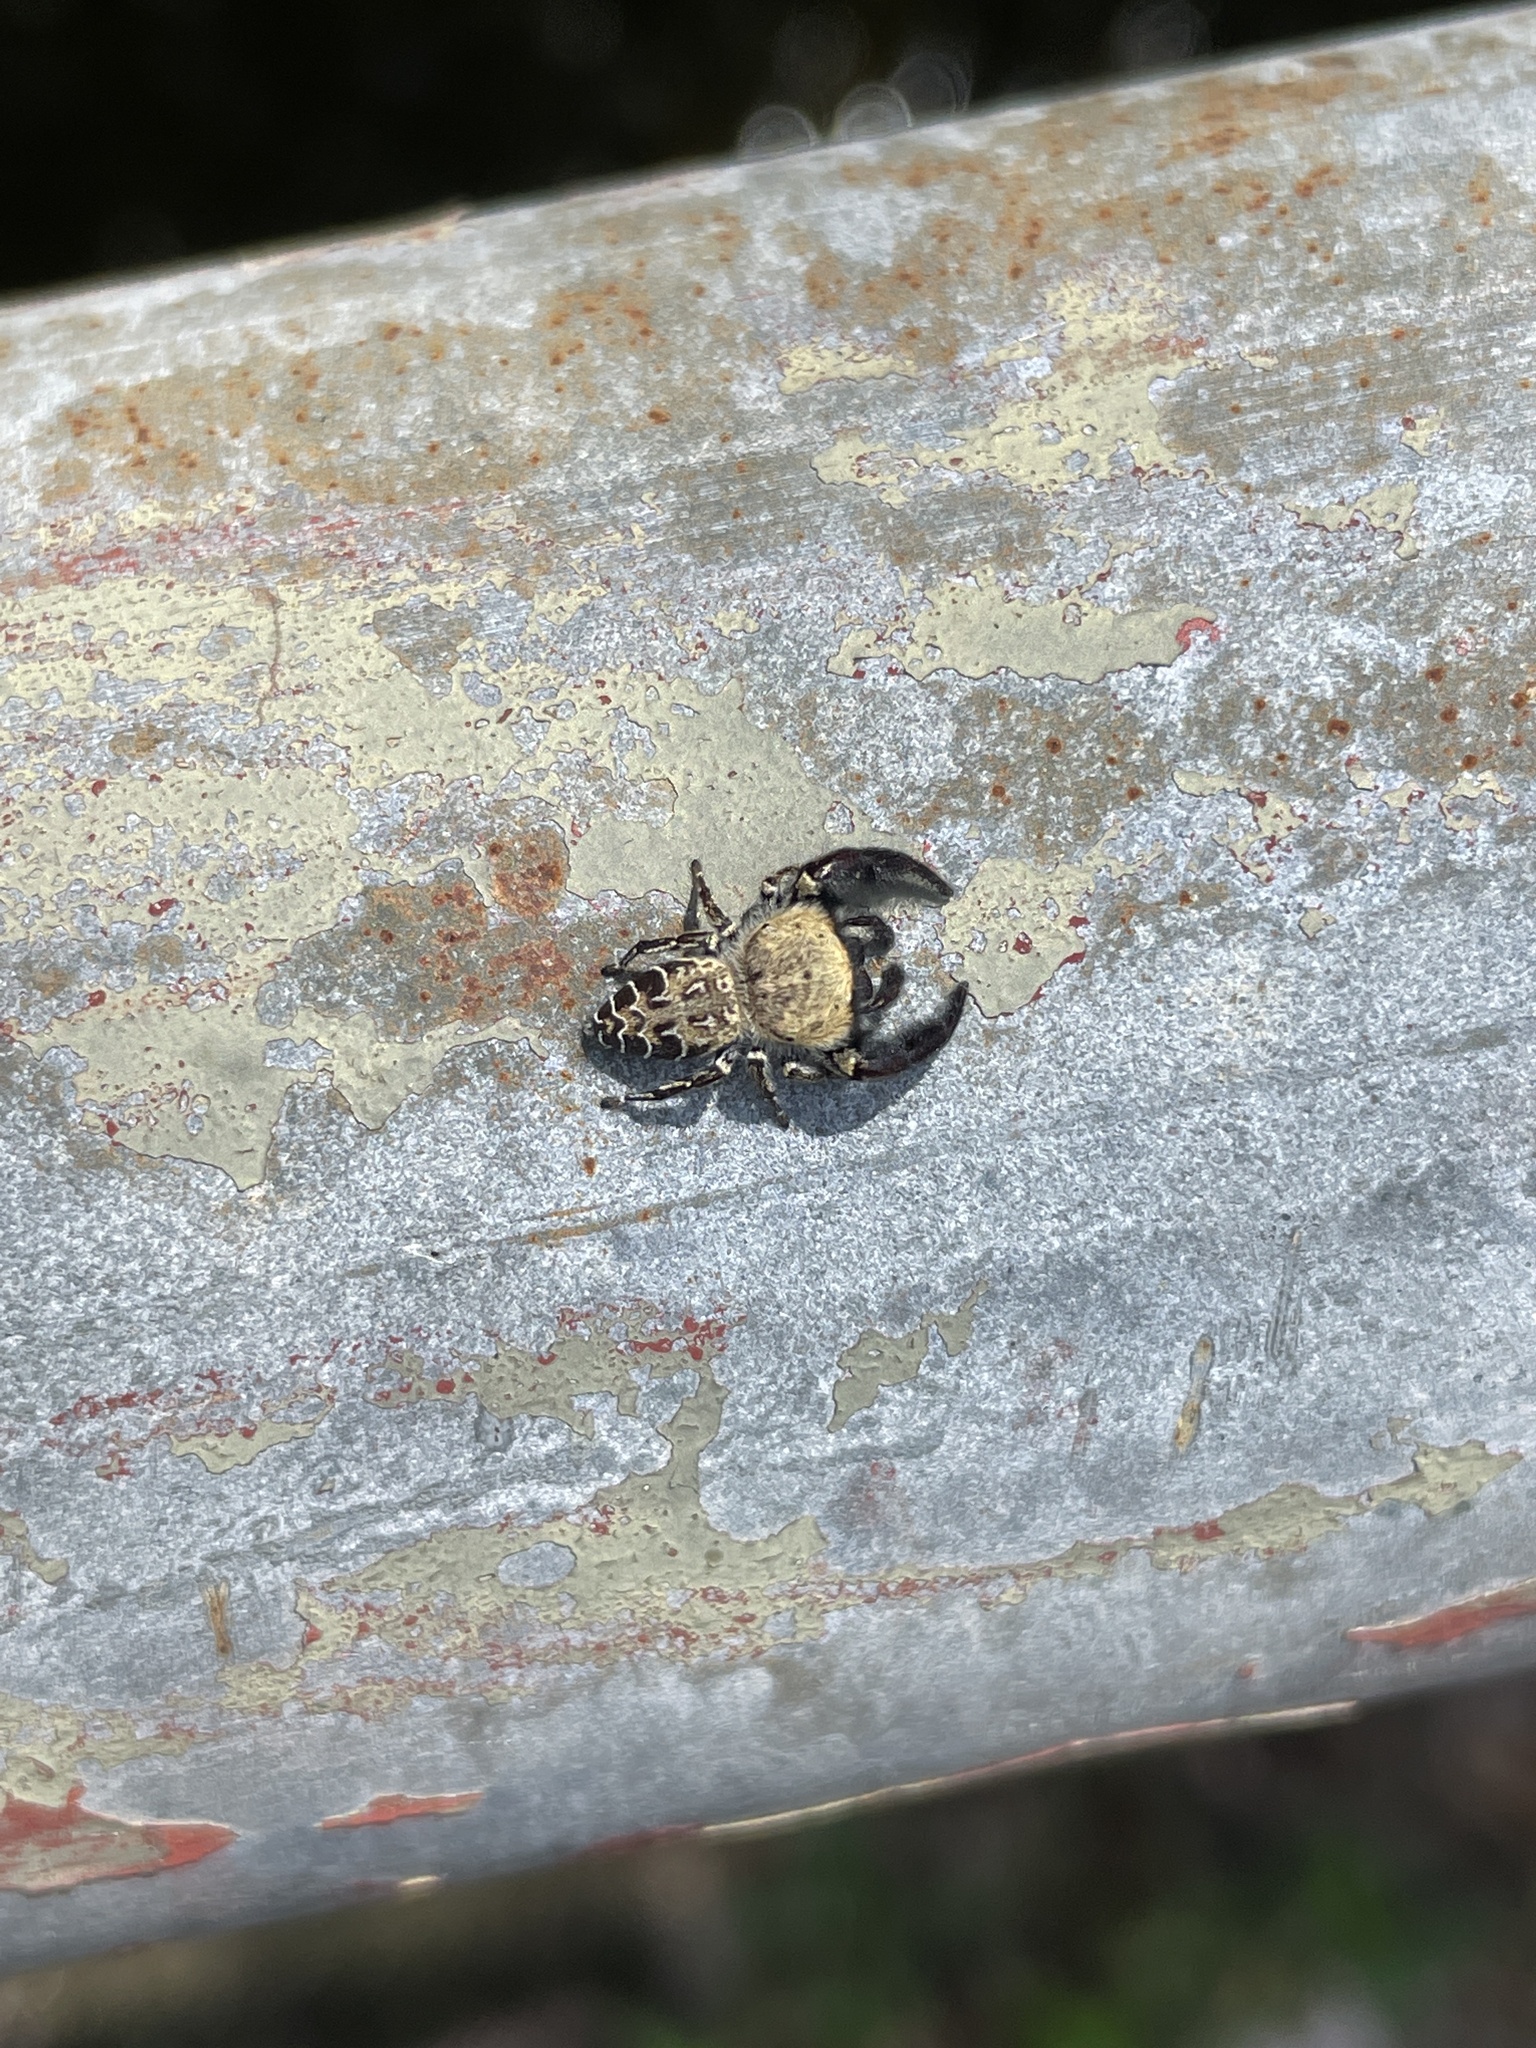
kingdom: Animalia
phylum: Arthropoda
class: Arachnida
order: Araneae
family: Salticidae
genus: Rhene
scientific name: Rhene rubrigera
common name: Jumping spider
